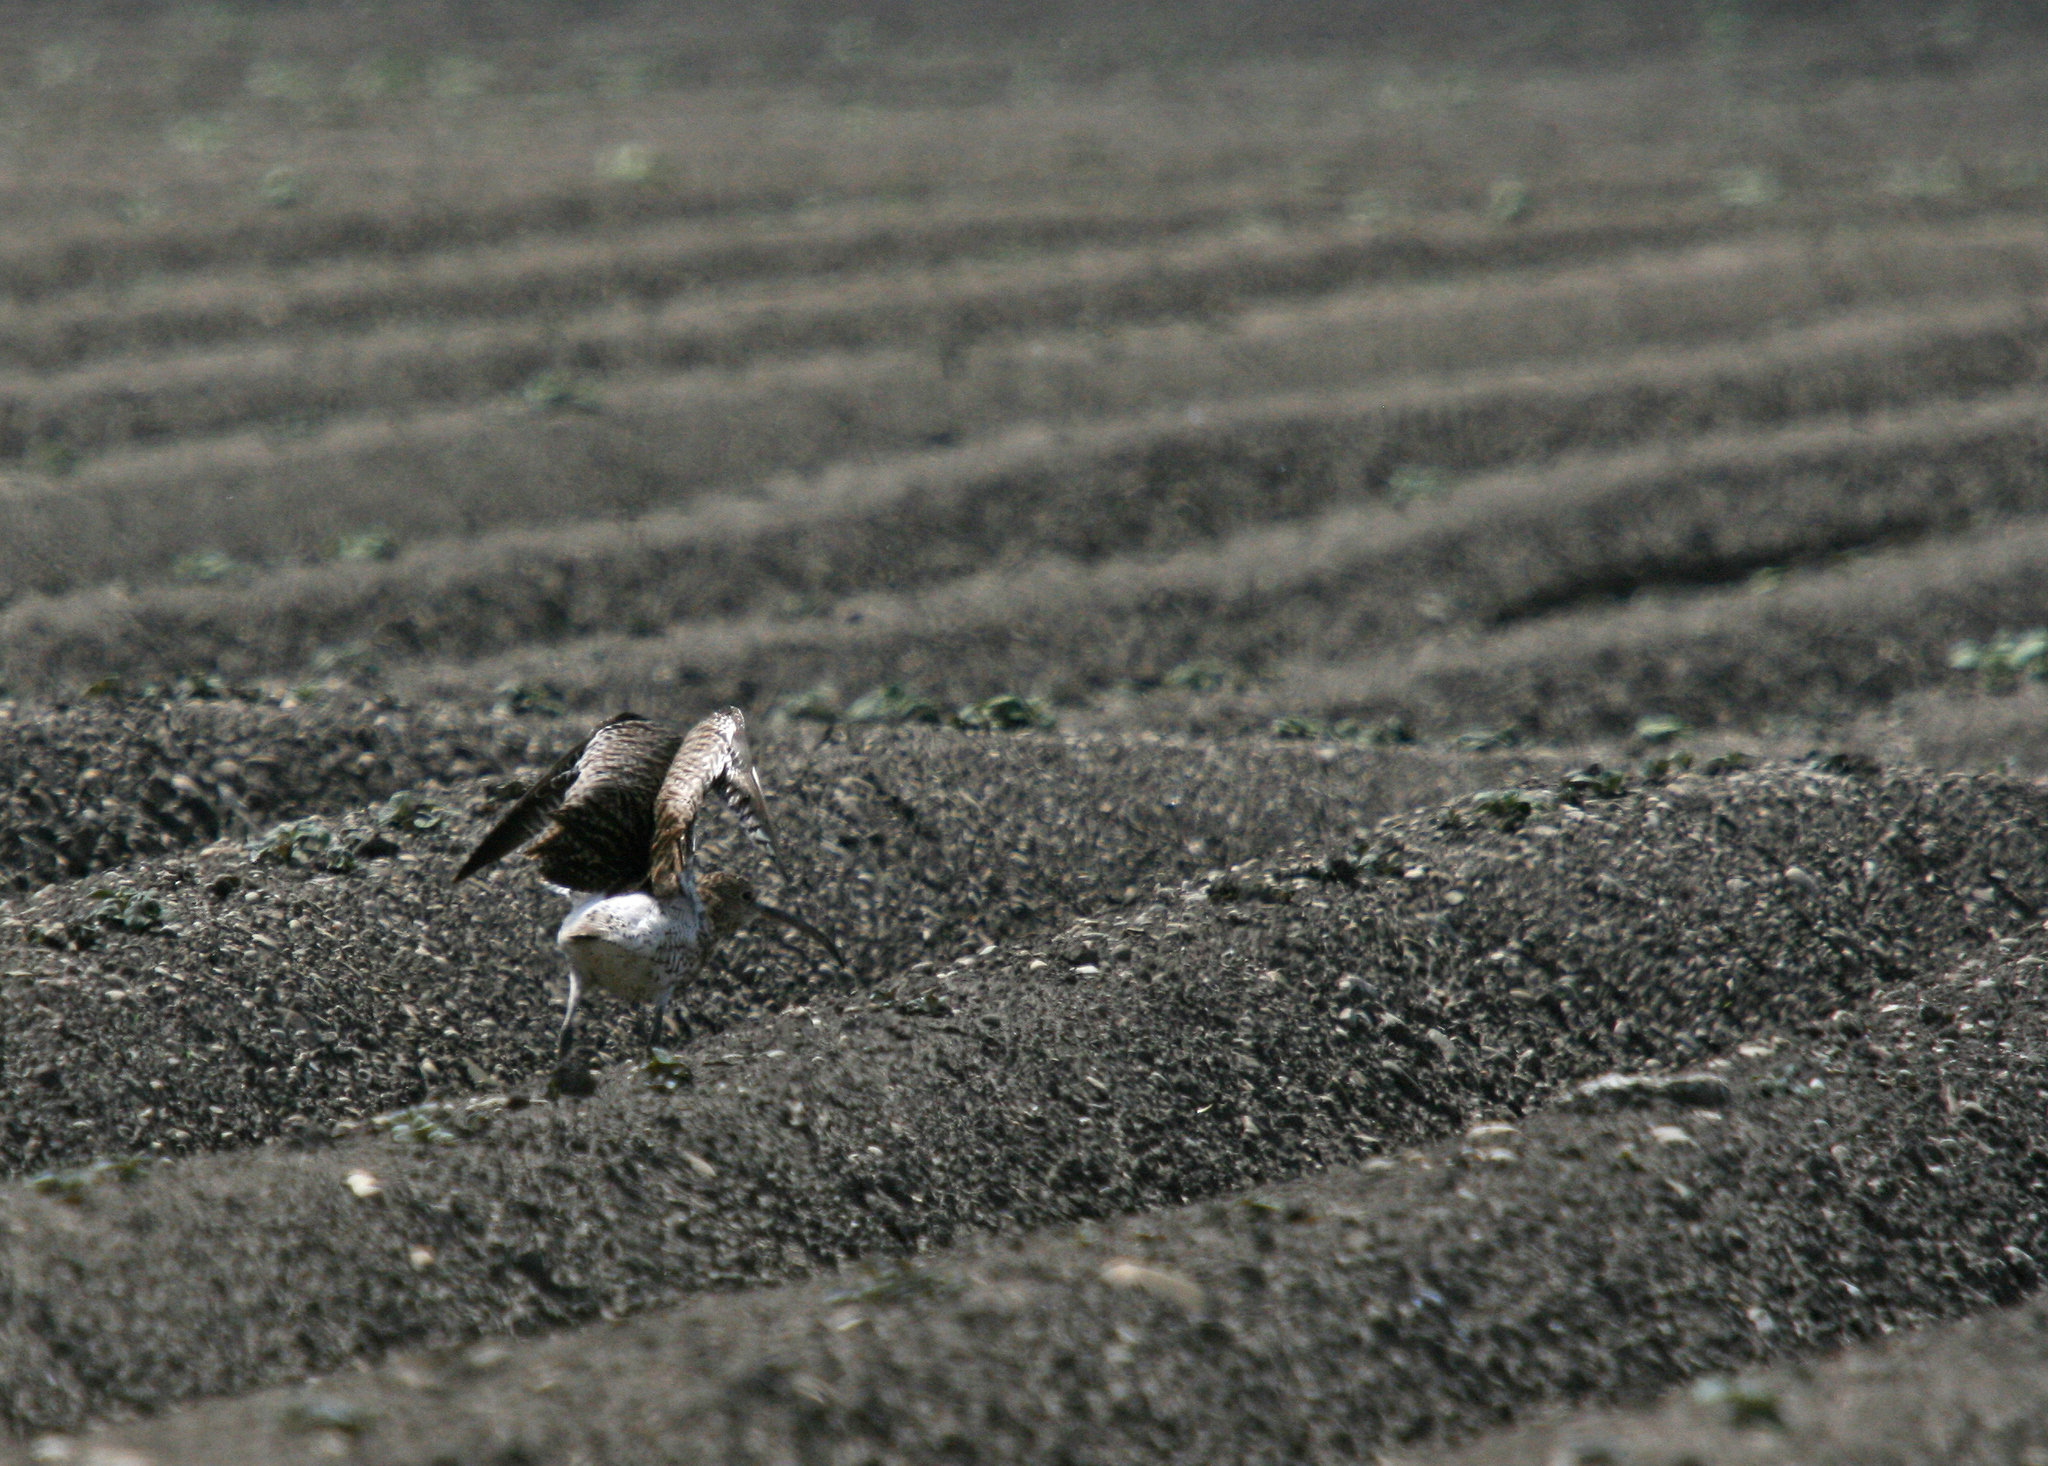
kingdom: Animalia
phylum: Chordata
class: Aves
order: Charadriiformes
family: Scolopacidae
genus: Numenius
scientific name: Numenius arquata
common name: Eurasian curlew
